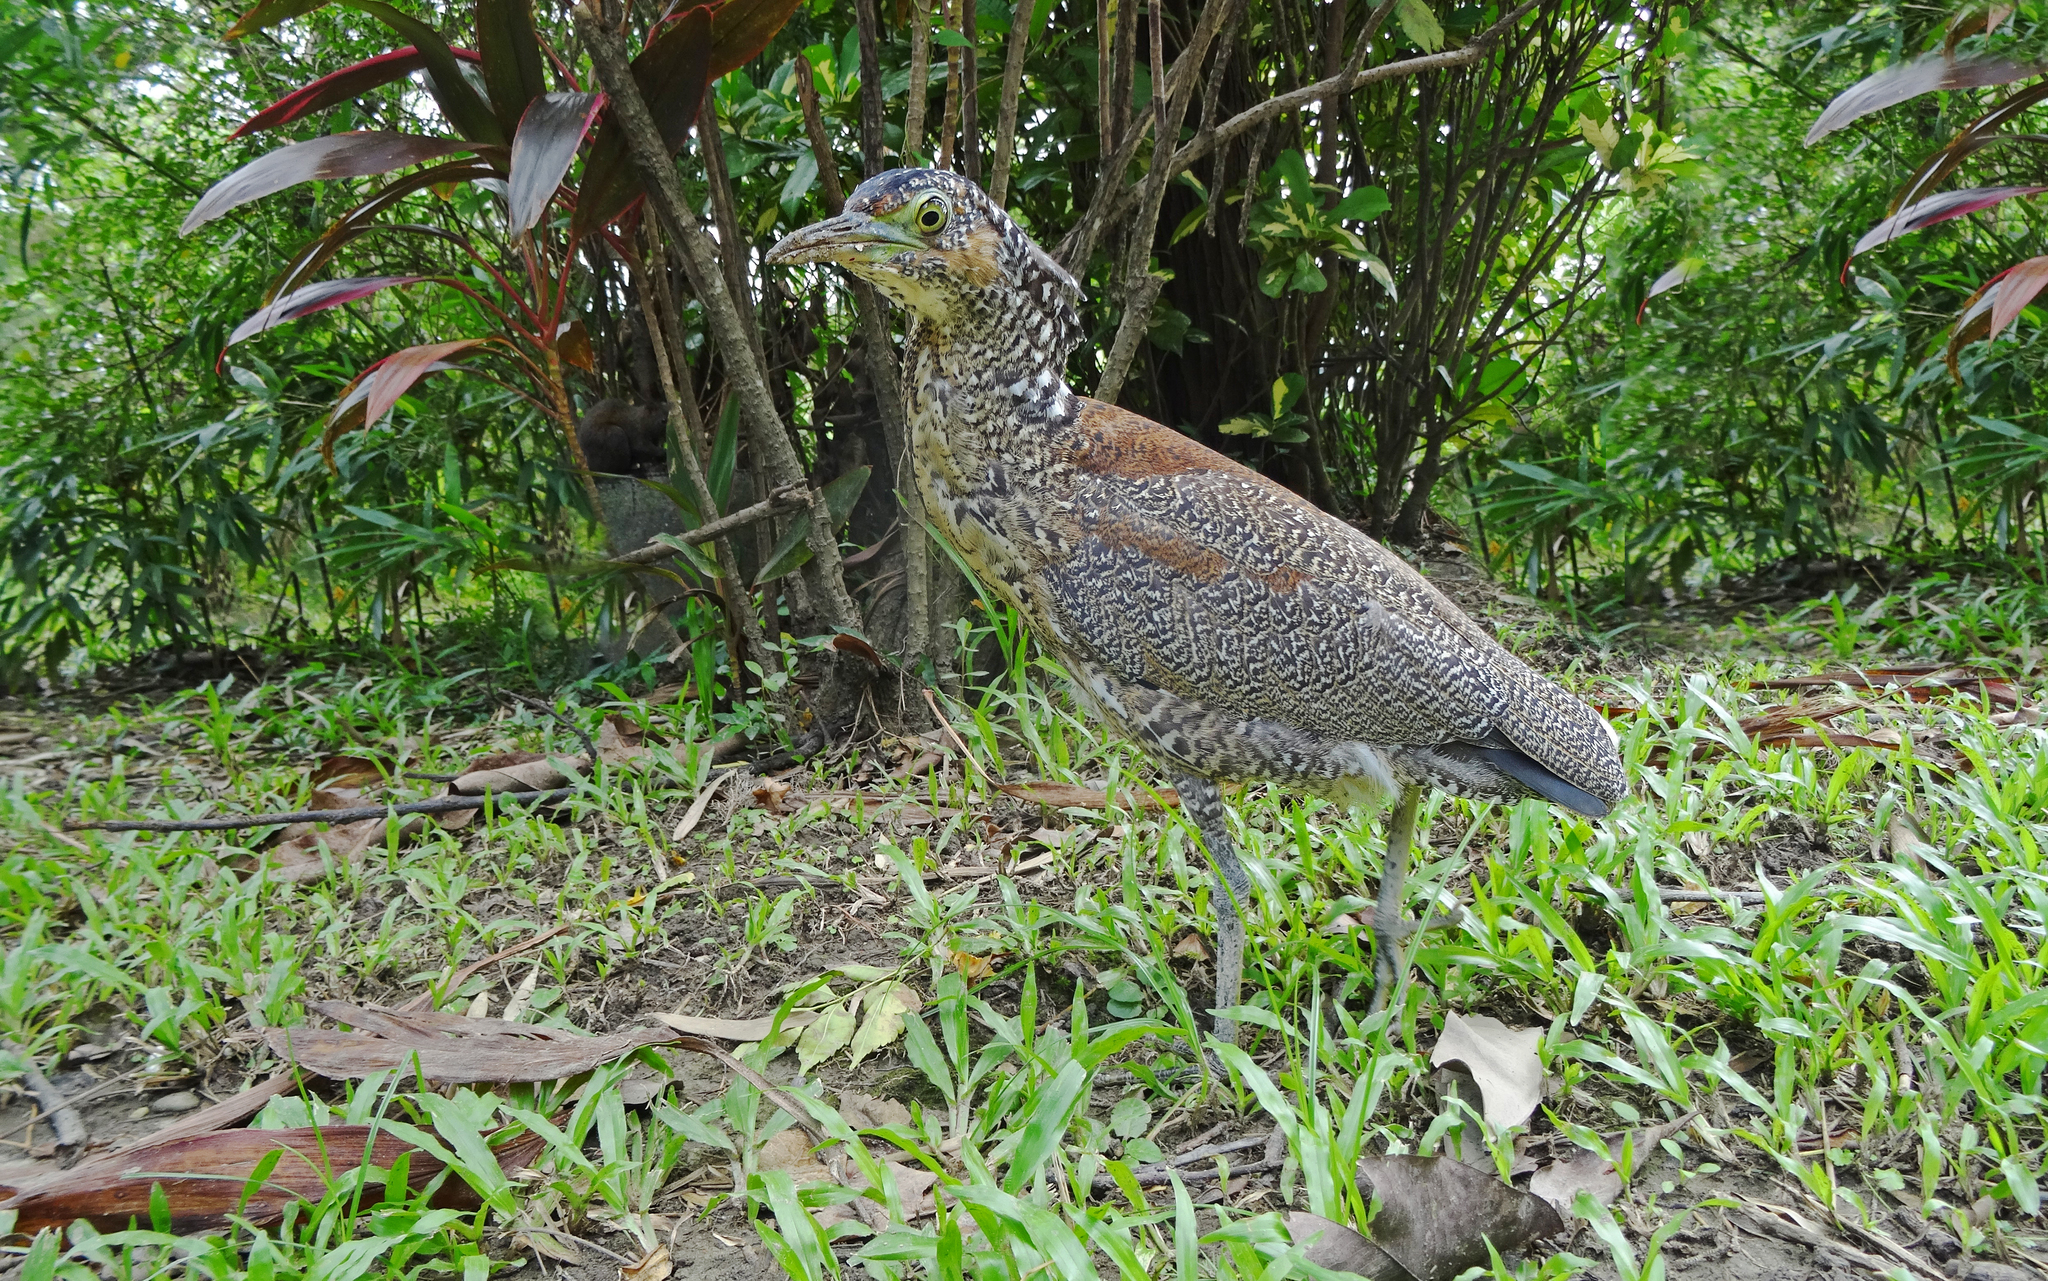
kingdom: Animalia
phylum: Chordata
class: Aves
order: Pelecaniformes
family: Ardeidae
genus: Gorsachius
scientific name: Gorsachius melanolophus
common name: Malayan night heron
